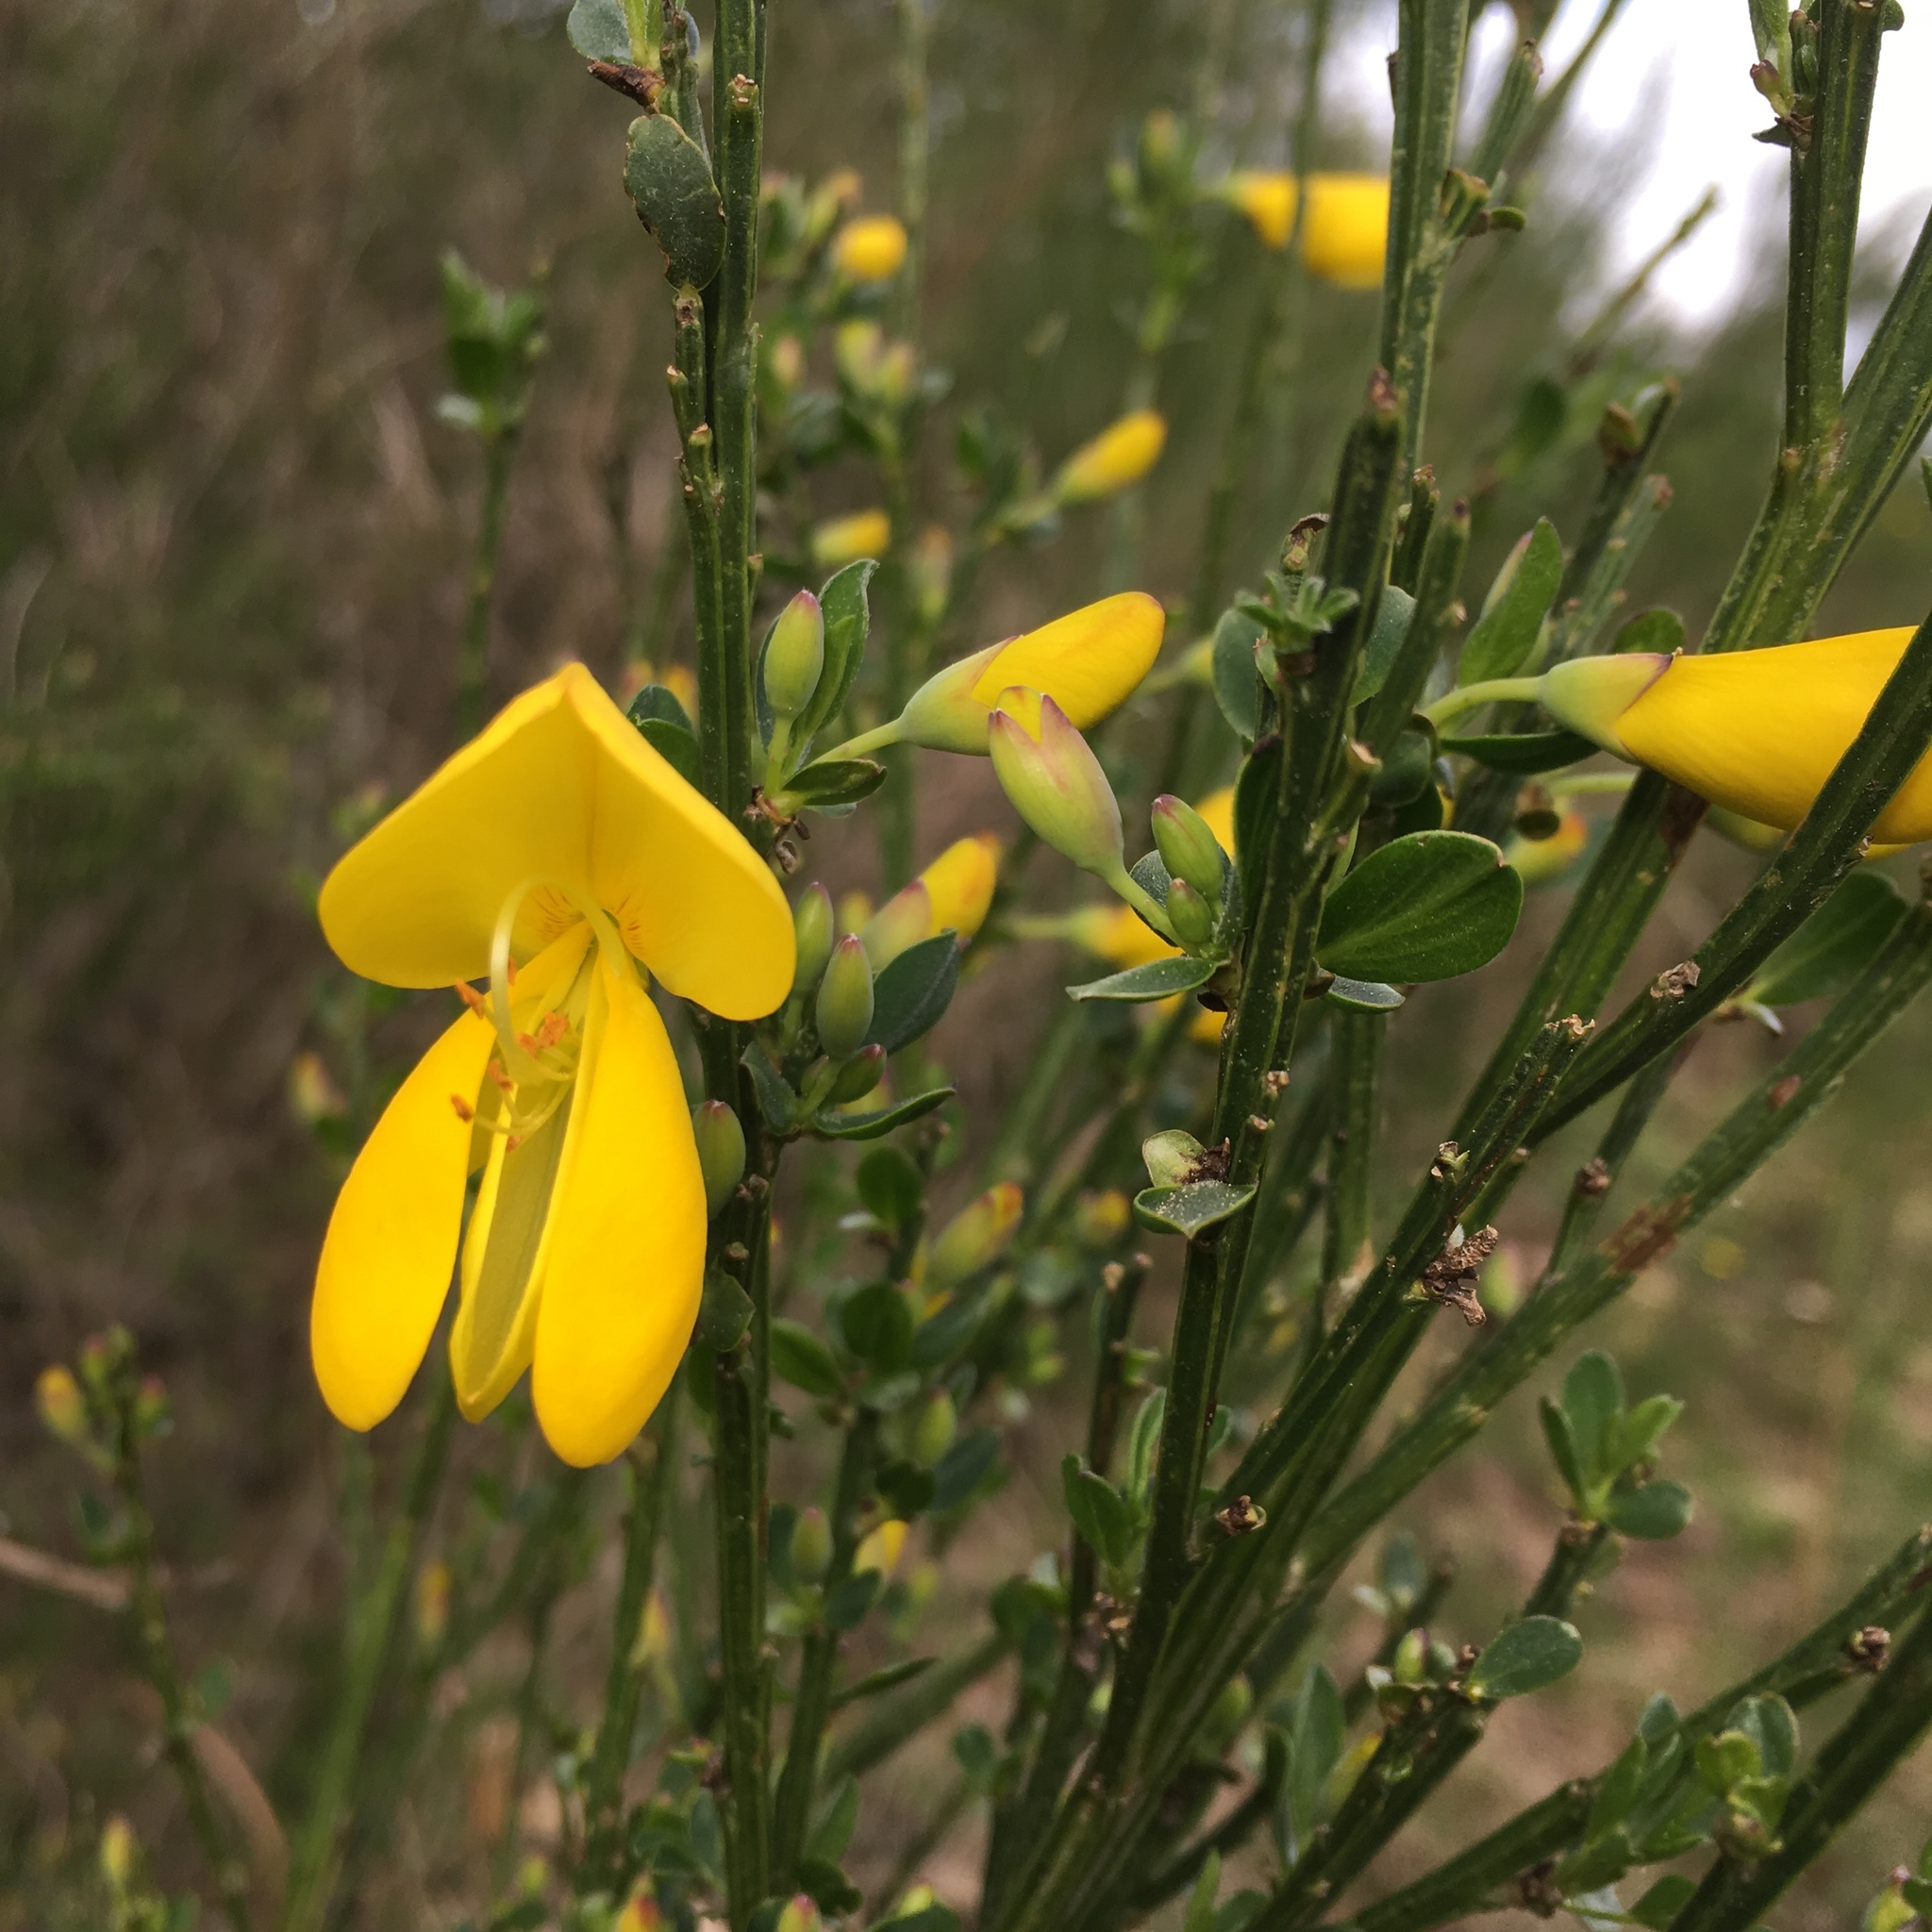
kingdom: Plantae
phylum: Tracheophyta
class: Magnoliopsida
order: Fabales
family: Fabaceae
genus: Cytisus
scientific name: Cytisus scoparius
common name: Scotch broom
